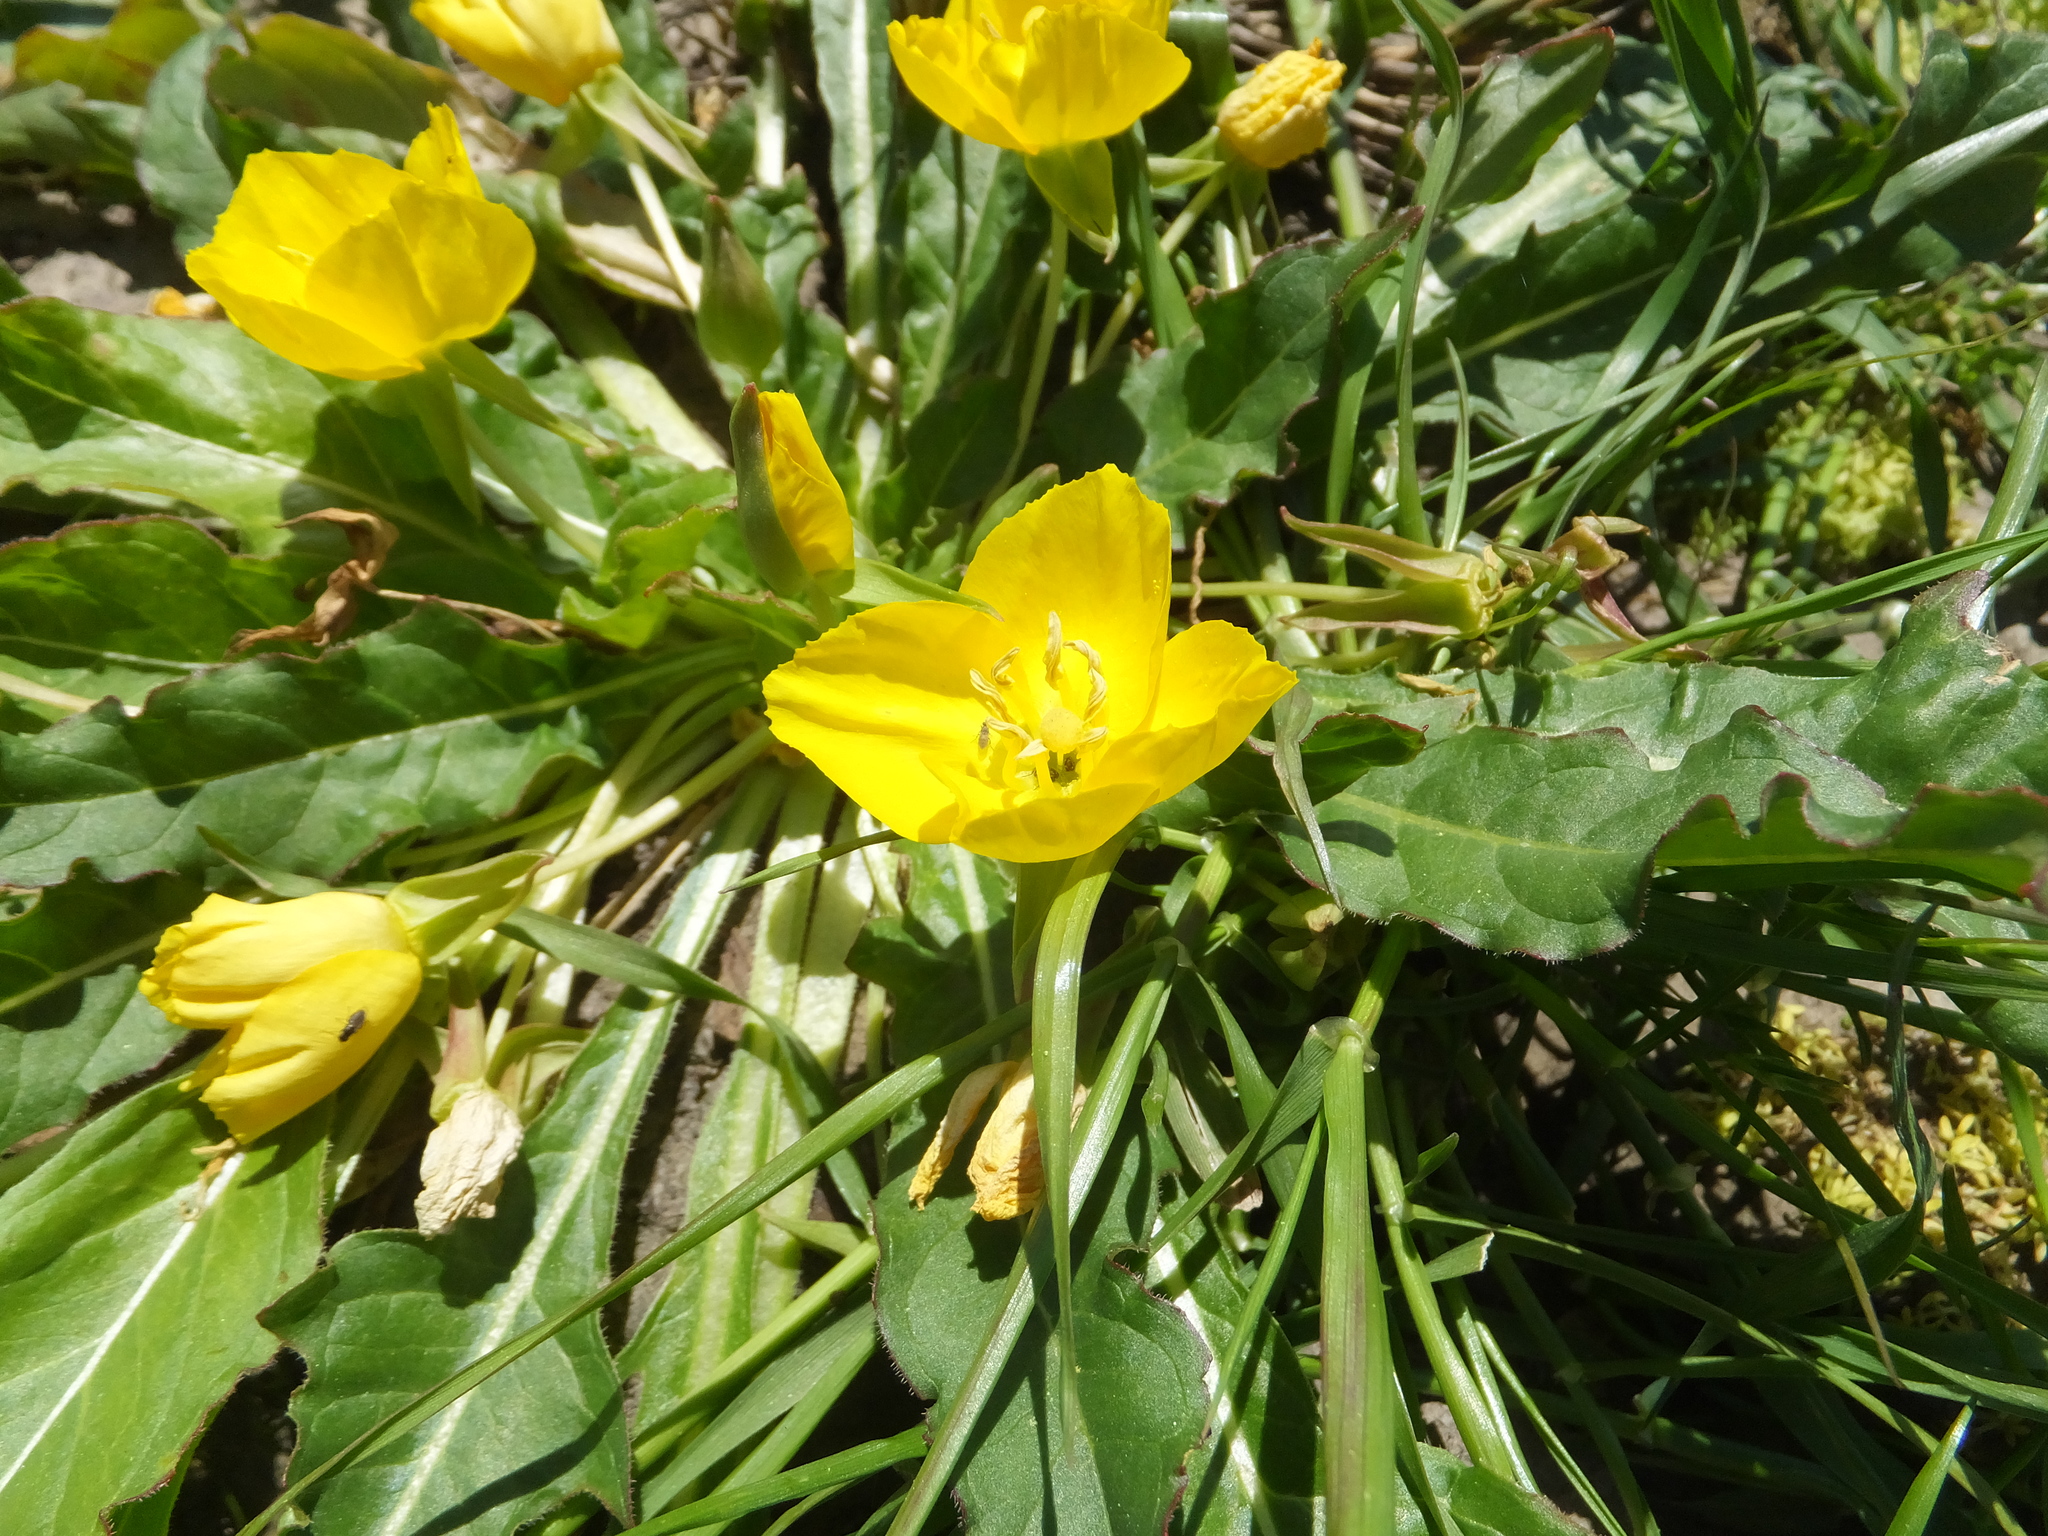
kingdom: Plantae
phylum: Tracheophyta
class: Magnoliopsida
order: Myrtales
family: Onagraceae
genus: Taraxia
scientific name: Taraxia ovata
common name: Goldeneggs
